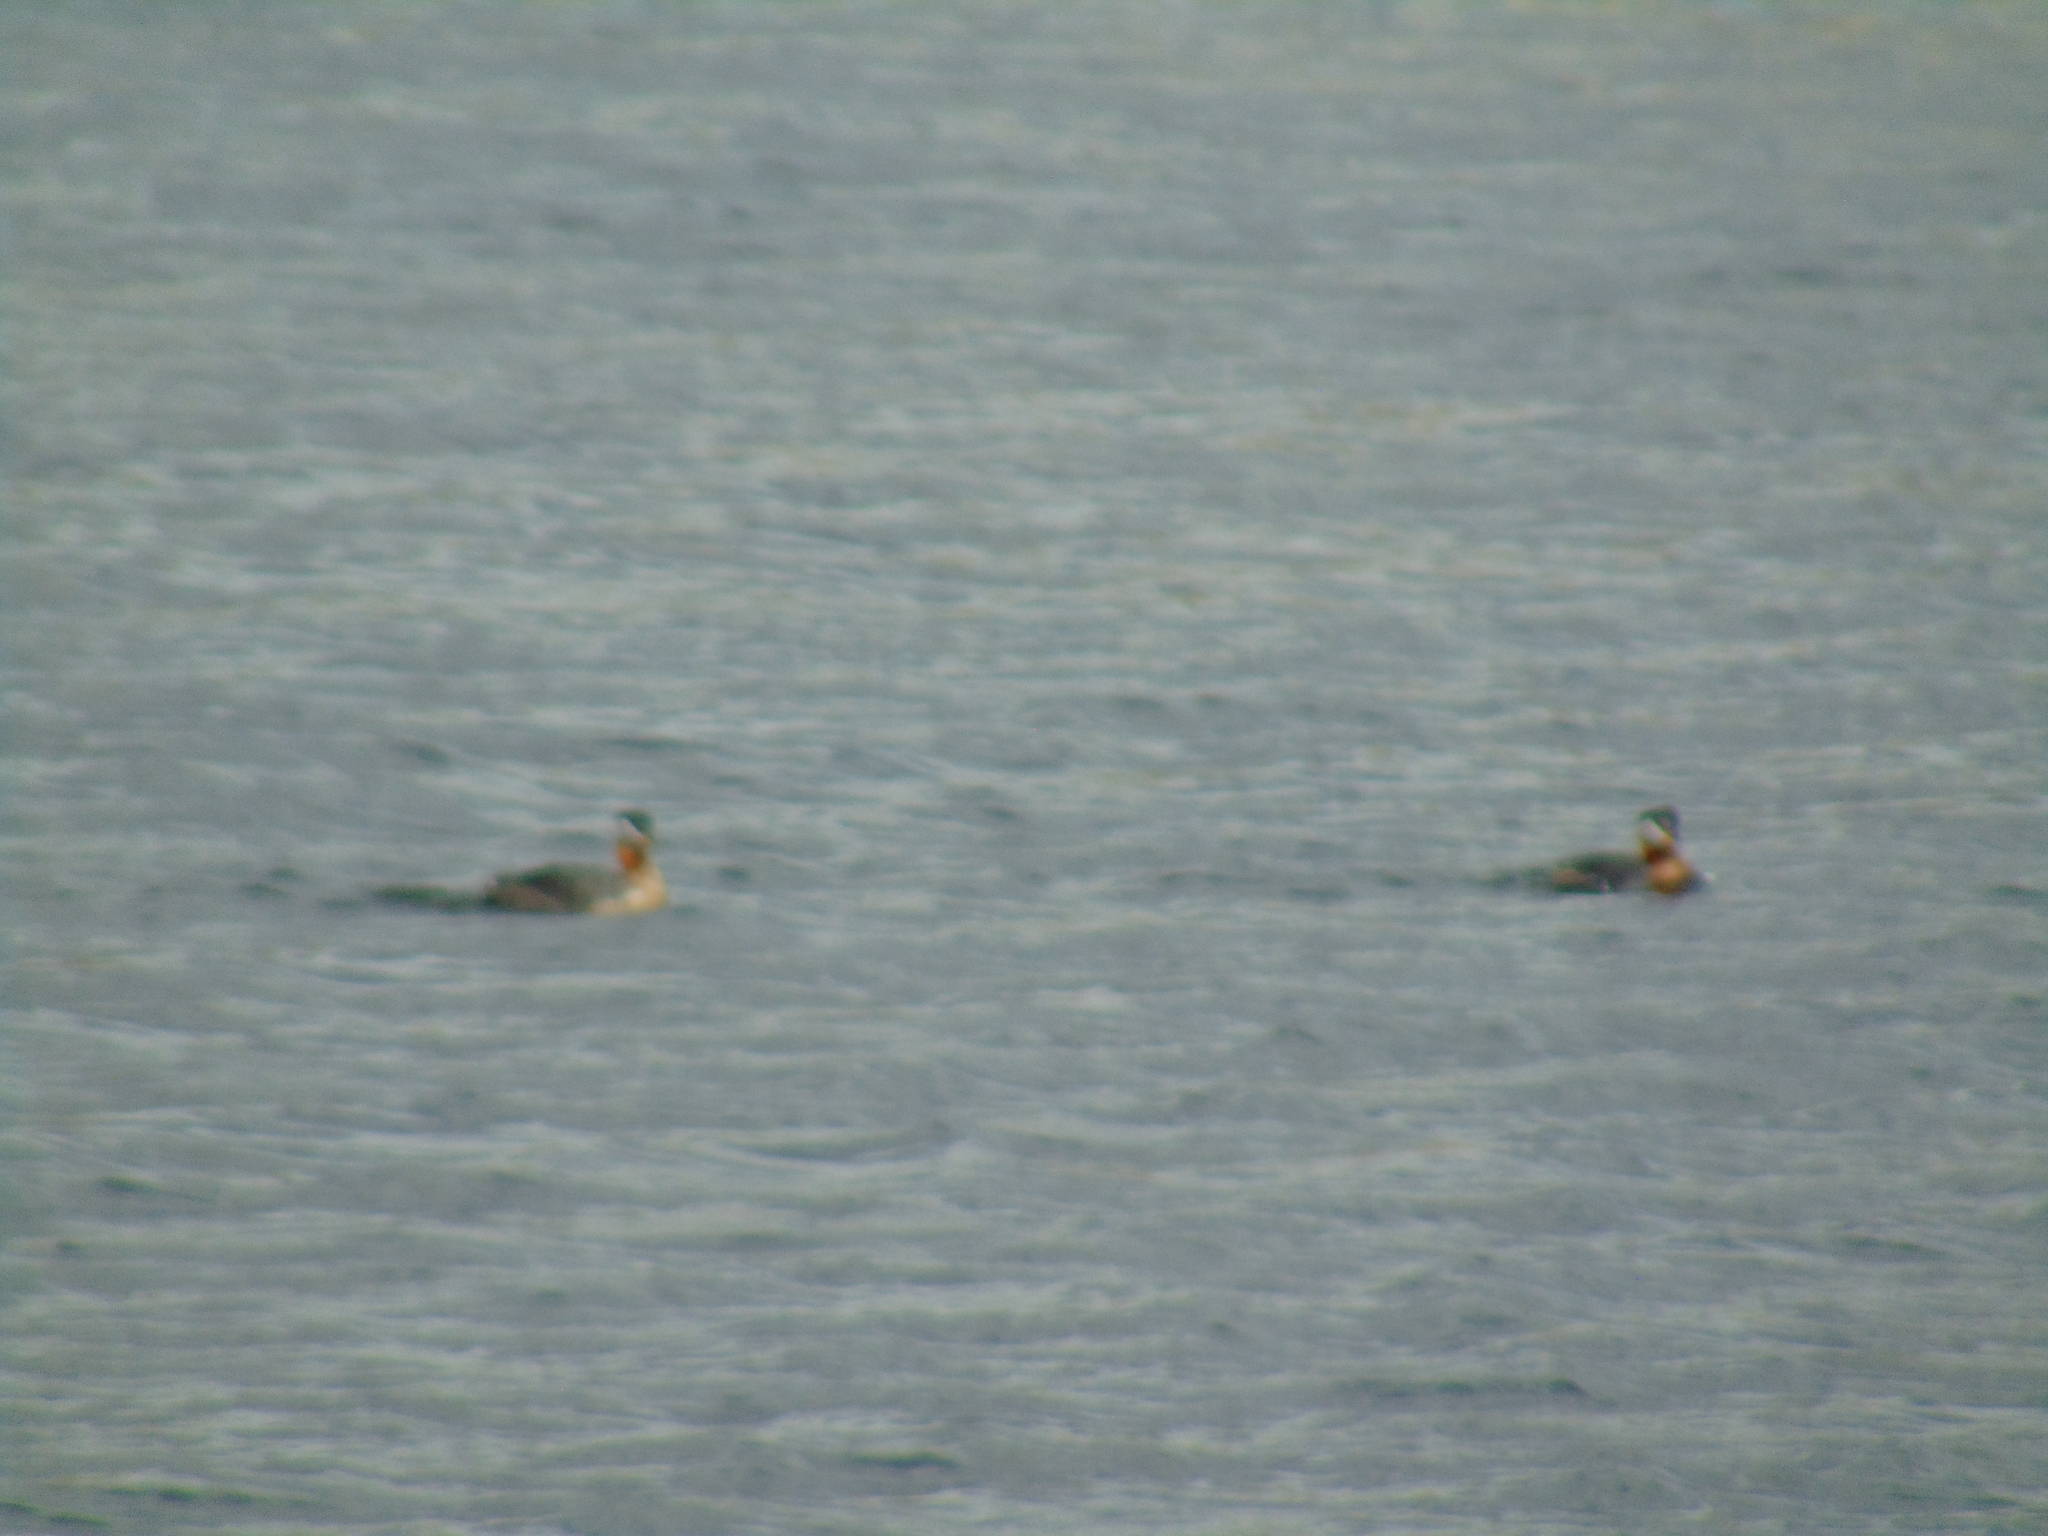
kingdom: Animalia
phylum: Chordata
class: Aves
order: Podicipediformes
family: Podicipedidae
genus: Podiceps
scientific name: Podiceps grisegena
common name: Red-necked grebe
